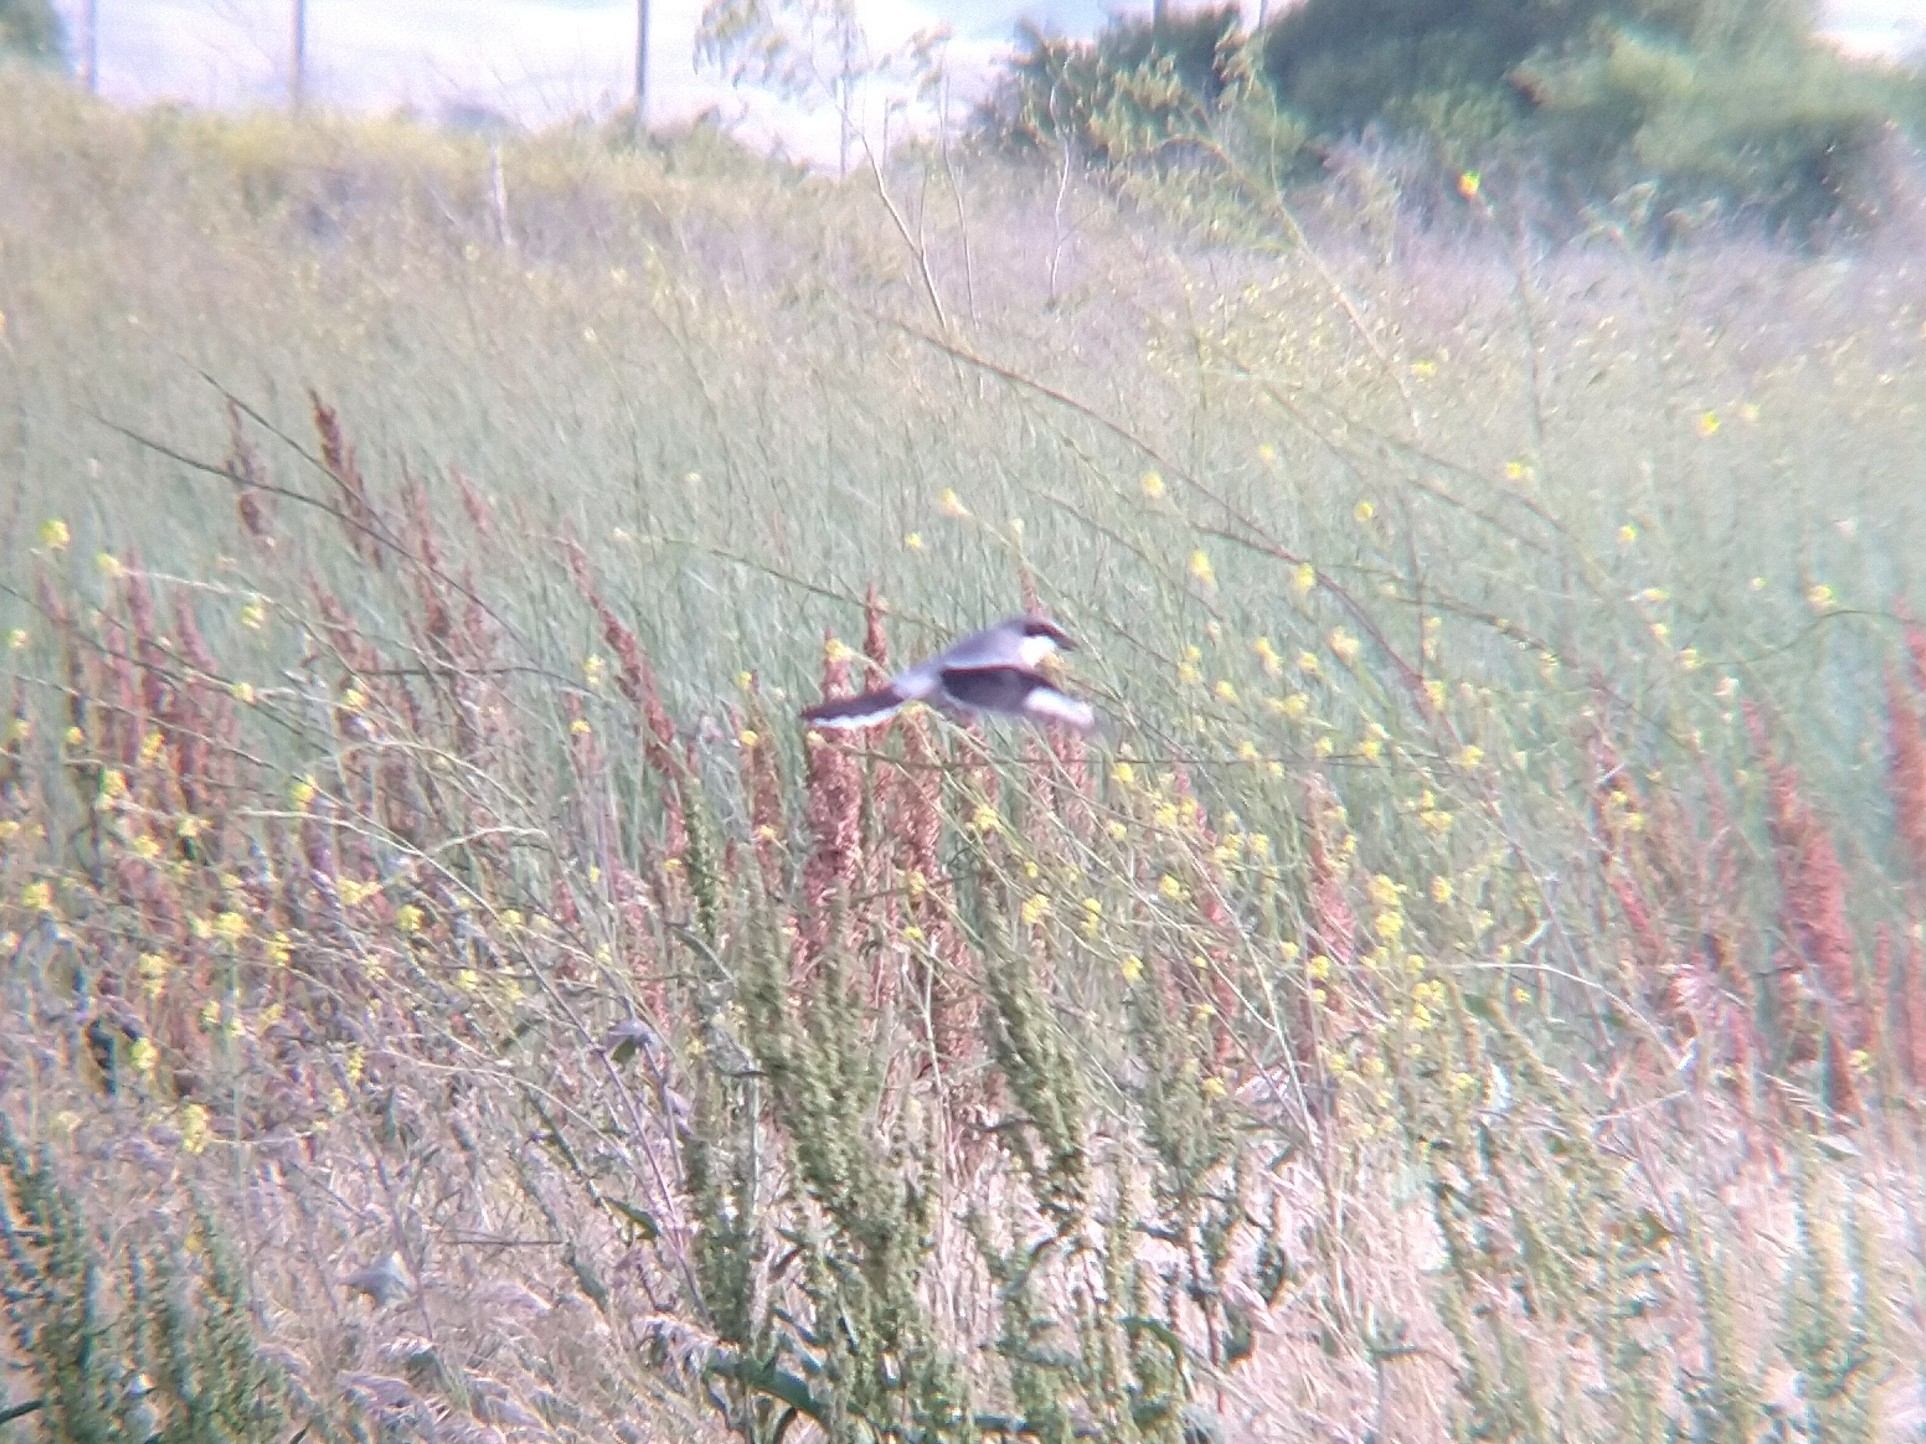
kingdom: Animalia
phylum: Chordata
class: Aves
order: Passeriformes
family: Laniidae
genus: Lanius
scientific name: Lanius ludovicianus
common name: Loggerhead shrike
